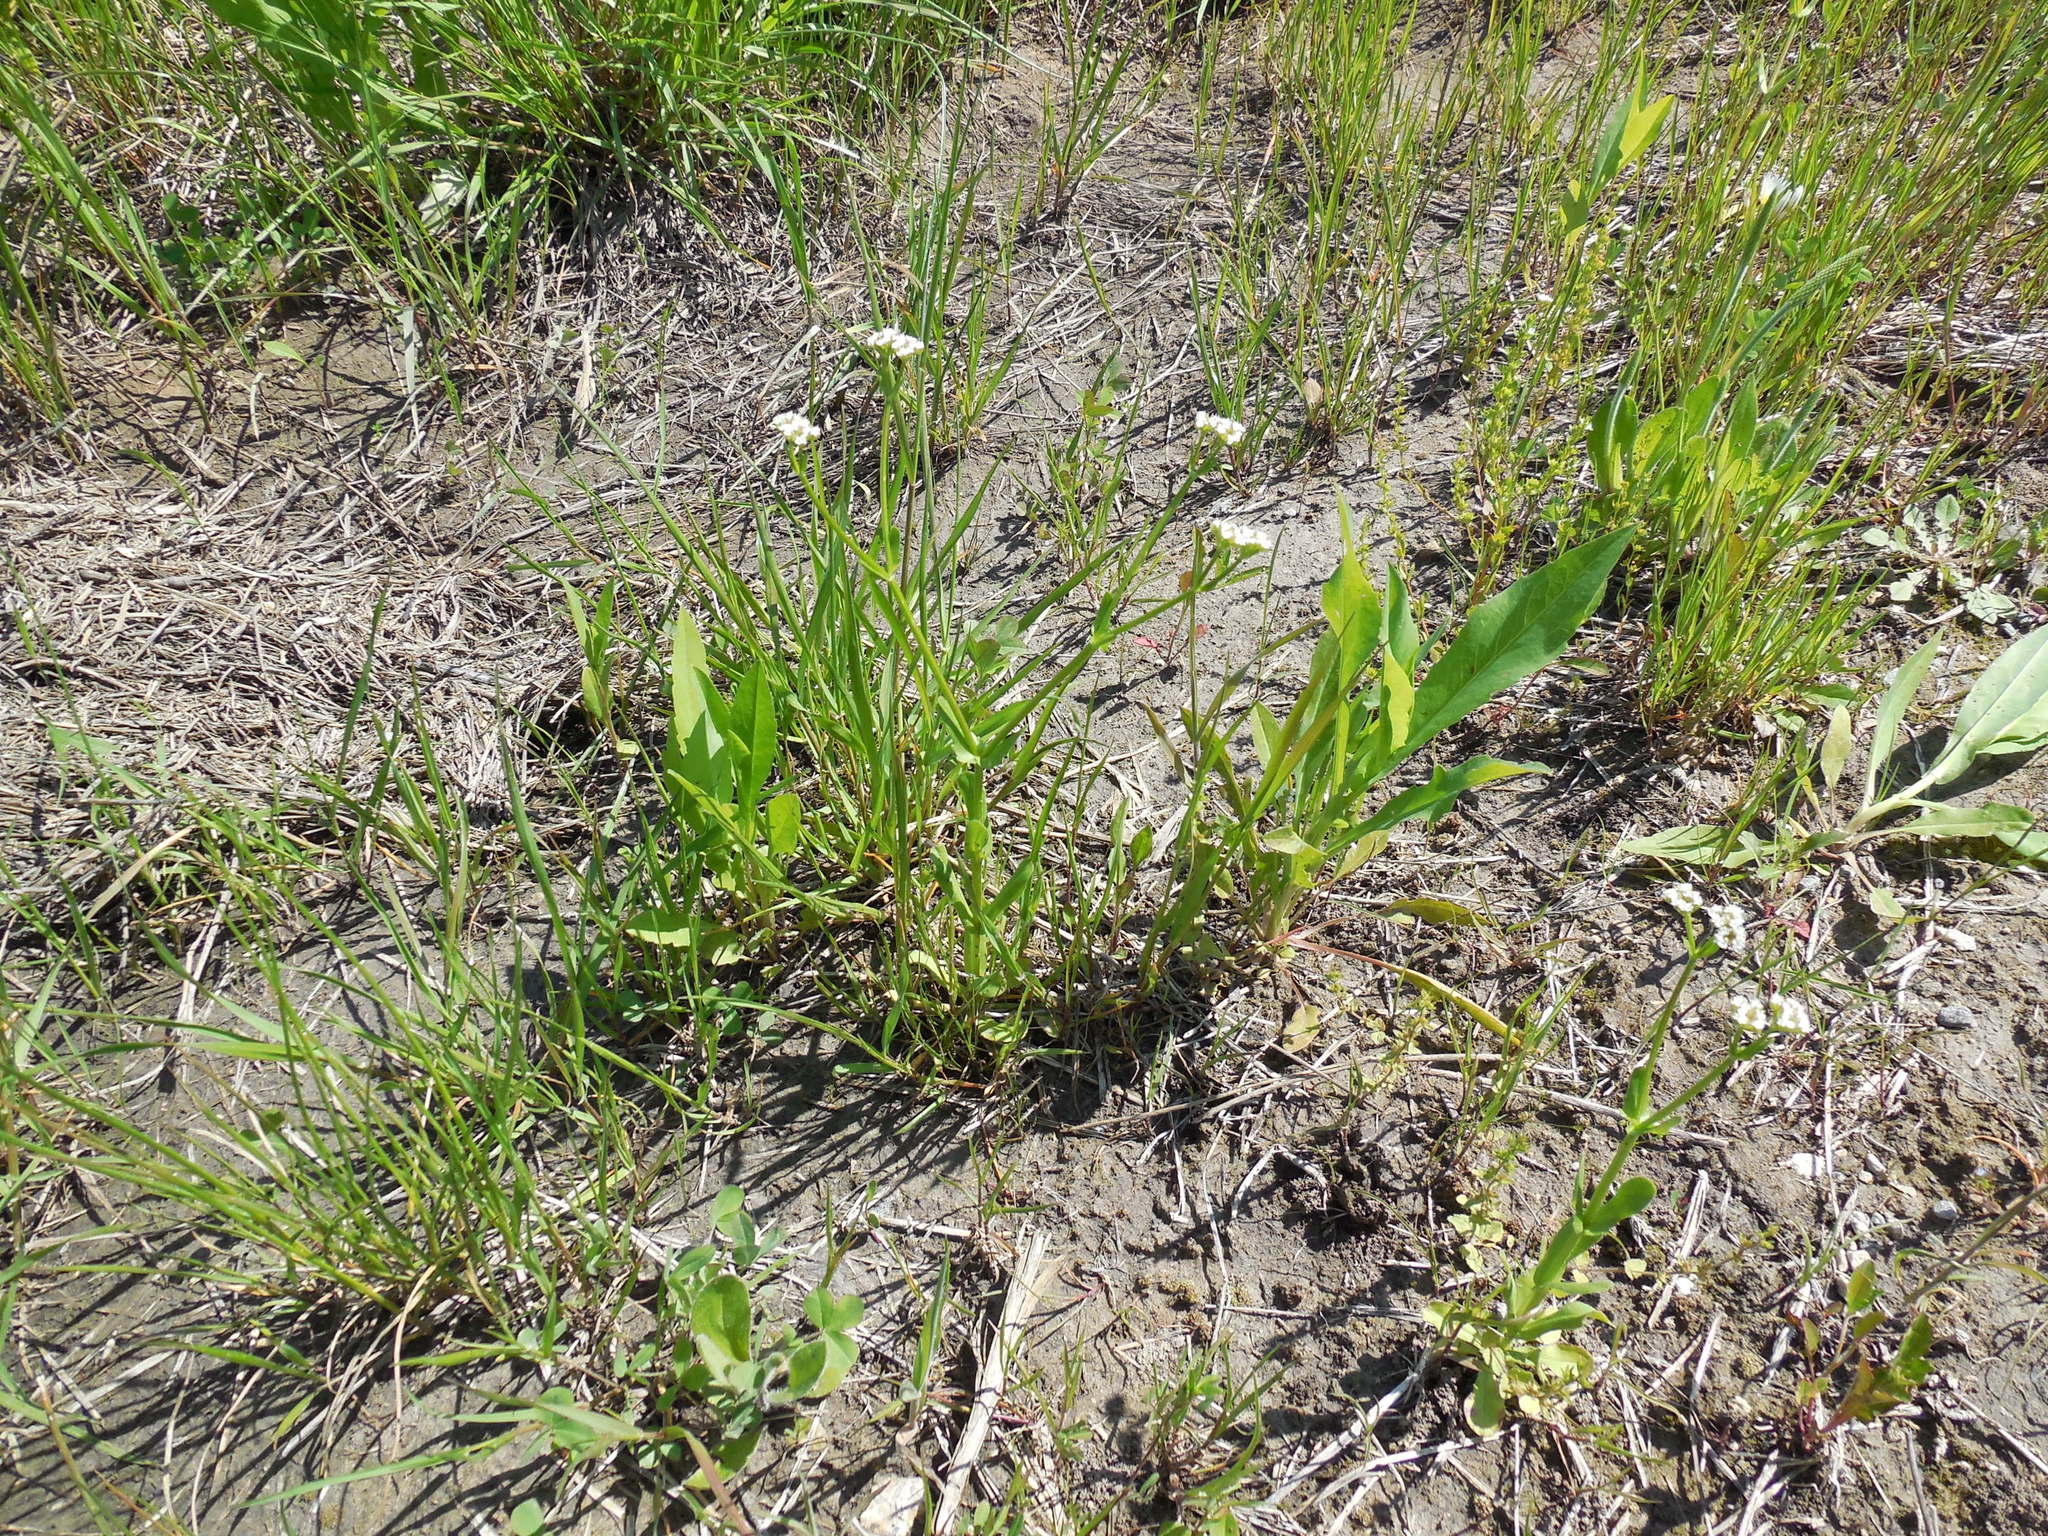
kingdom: Plantae
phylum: Tracheophyta
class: Magnoliopsida
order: Dipsacales
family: Caprifoliaceae
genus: Valerianella
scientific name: Valerianella radiata
